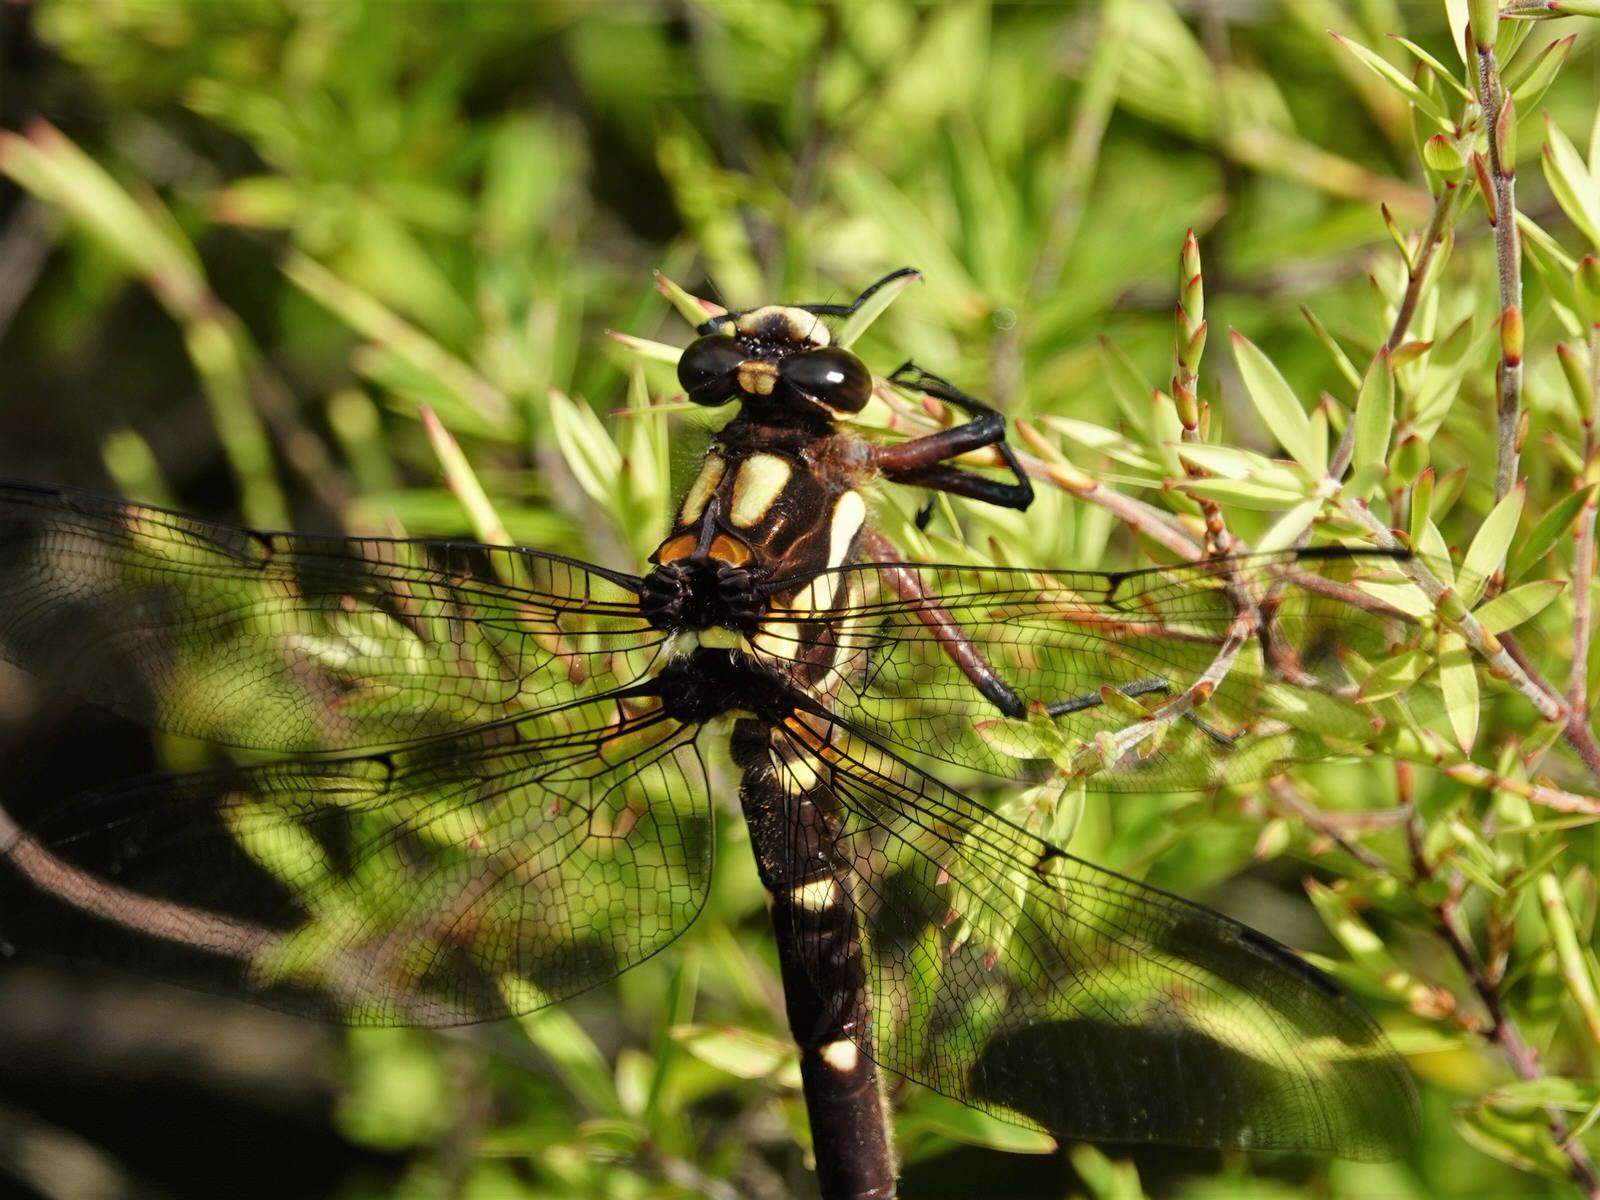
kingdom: Animalia
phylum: Arthropoda
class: Insecta
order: Odonata
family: Petaluridae
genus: Uropetala
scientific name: Uropetala carovei
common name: Bush giant dragonfly
